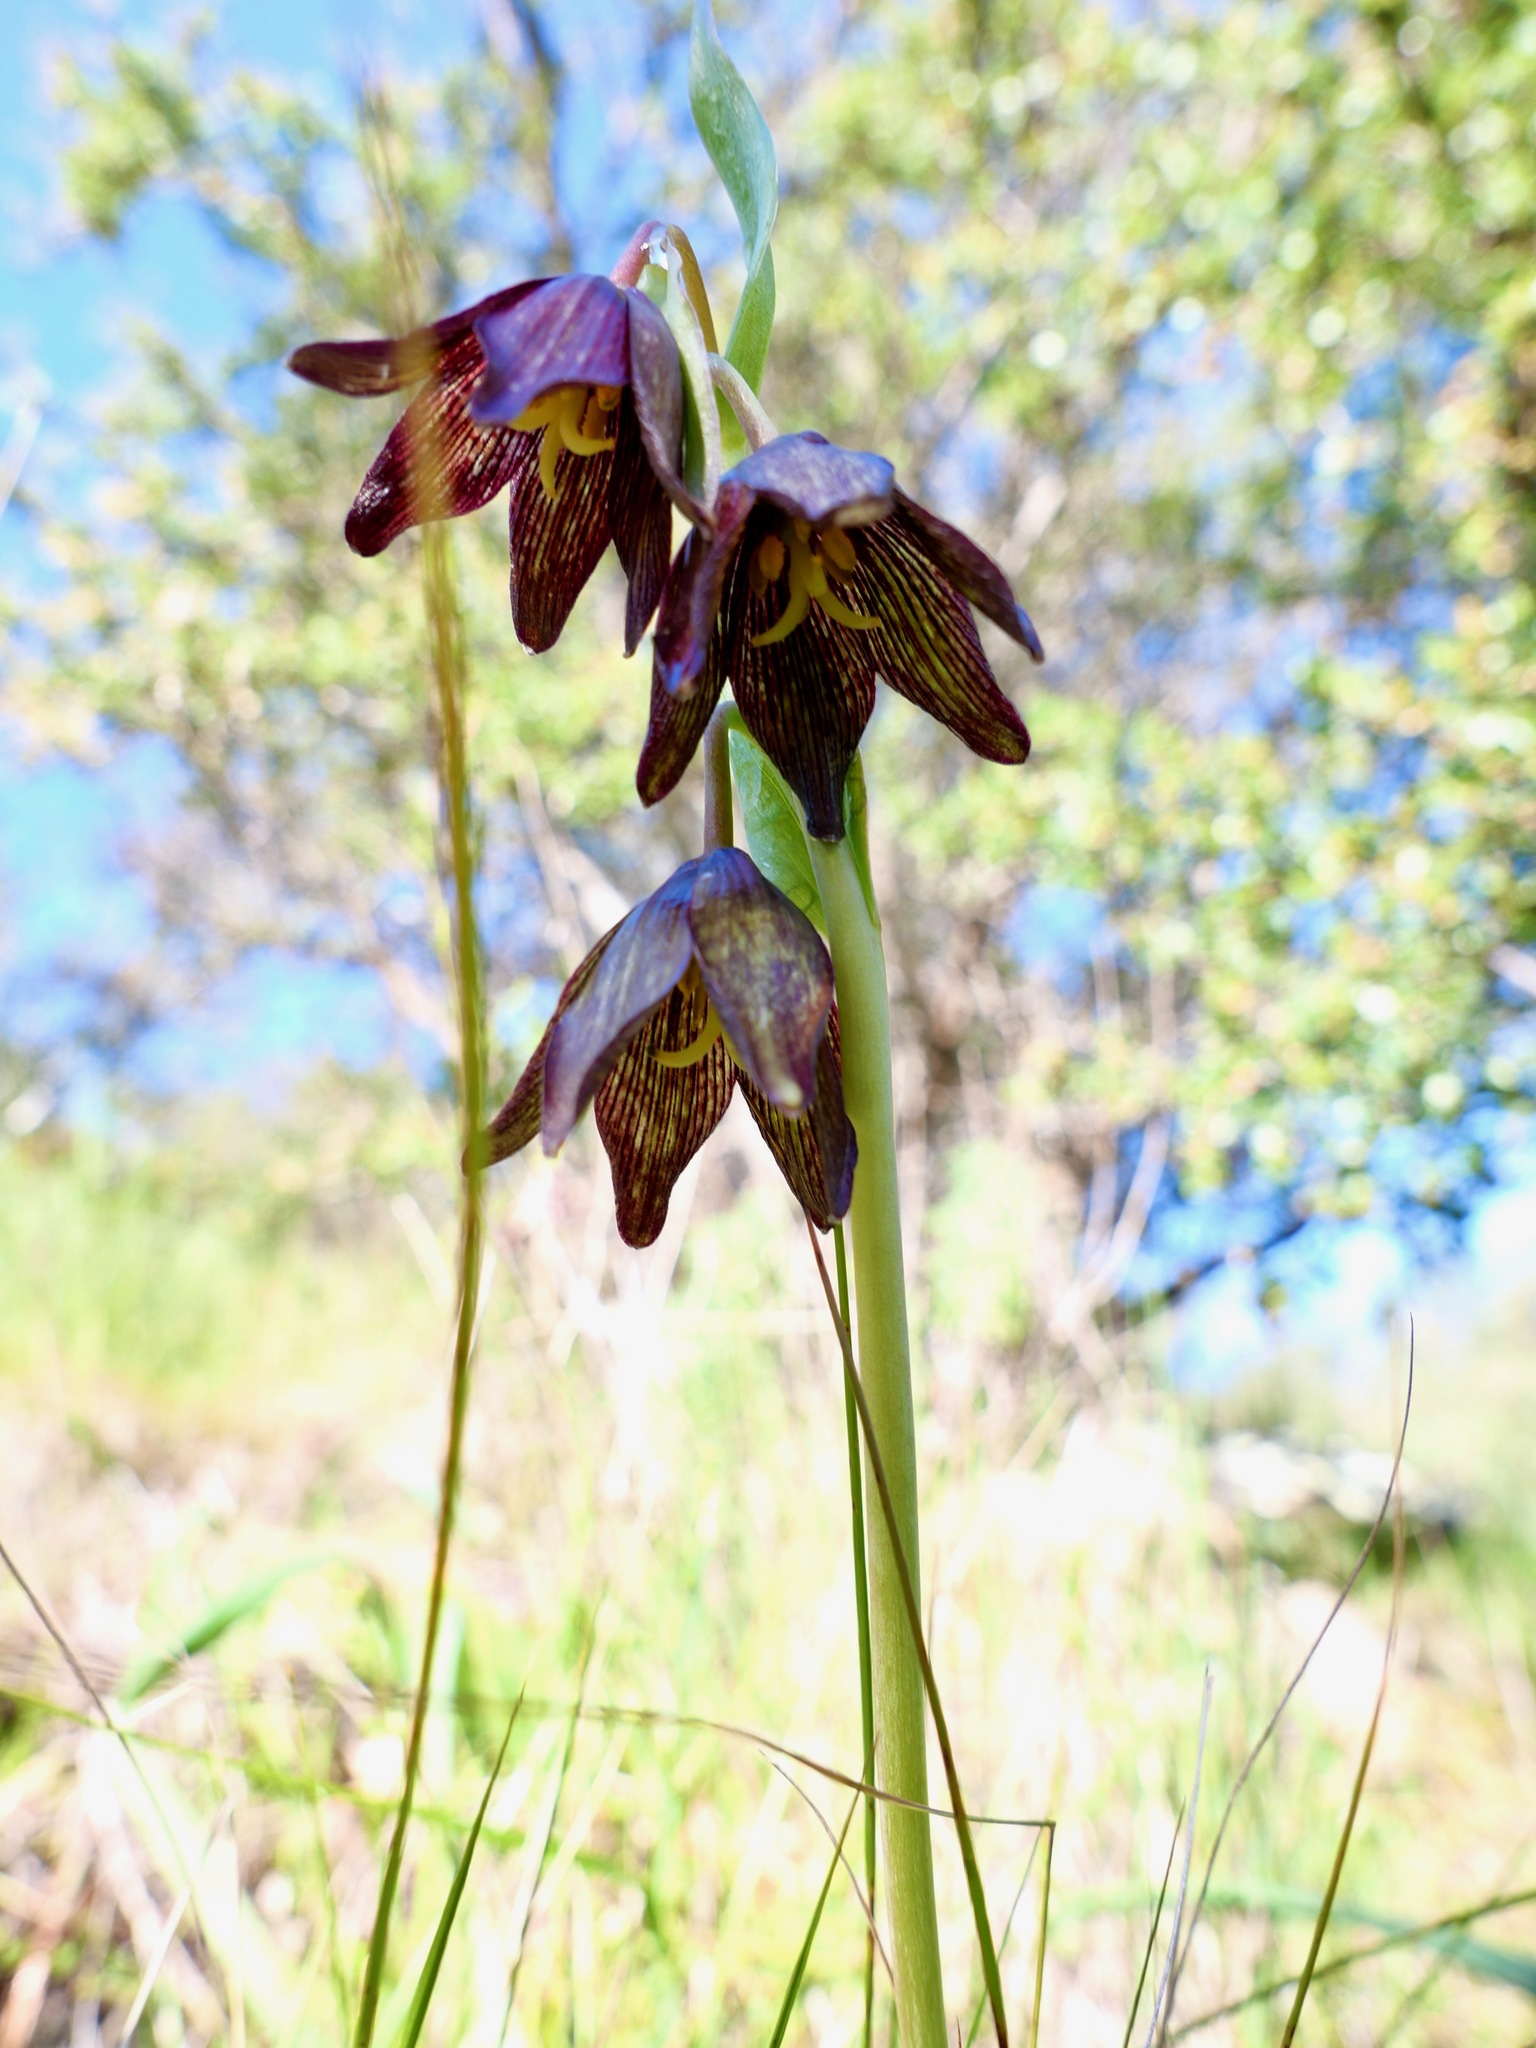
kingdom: Plantae
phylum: Tracheophyta
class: Liliopsida
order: Liliales
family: Liliaceae
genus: Fritillaria
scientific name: Fritillaria biflora
